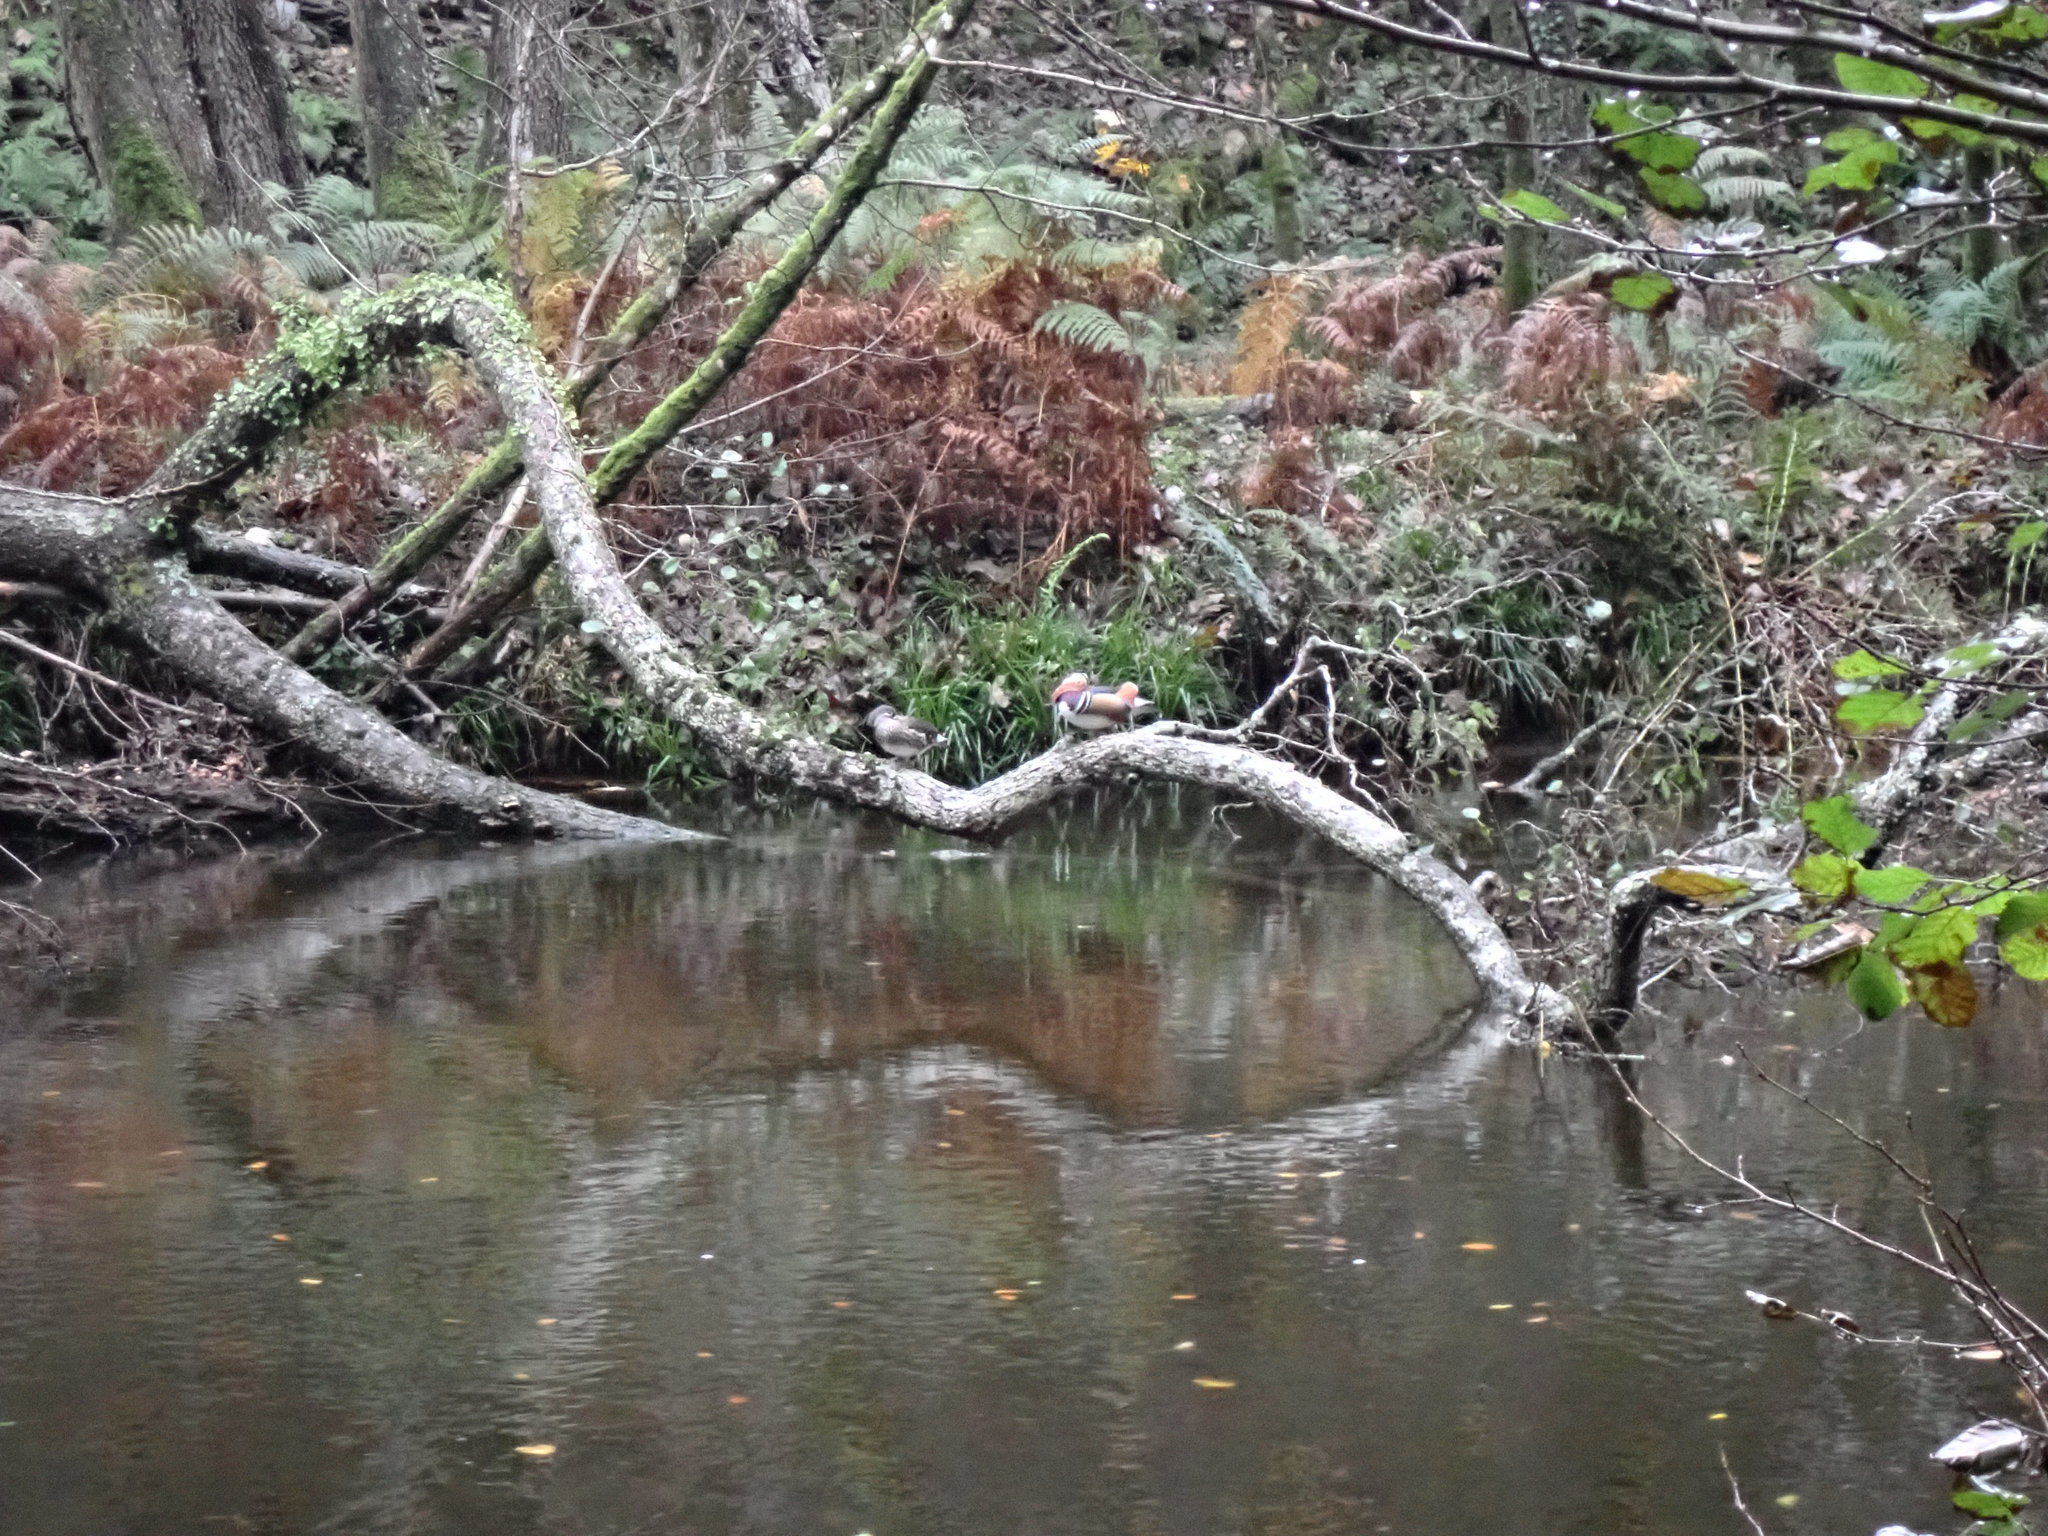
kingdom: Animalia
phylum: Chordata
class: Aves
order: Anseriformes
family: Anatidae
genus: Aix
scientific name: Aix galericulata
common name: Mandarin duck
